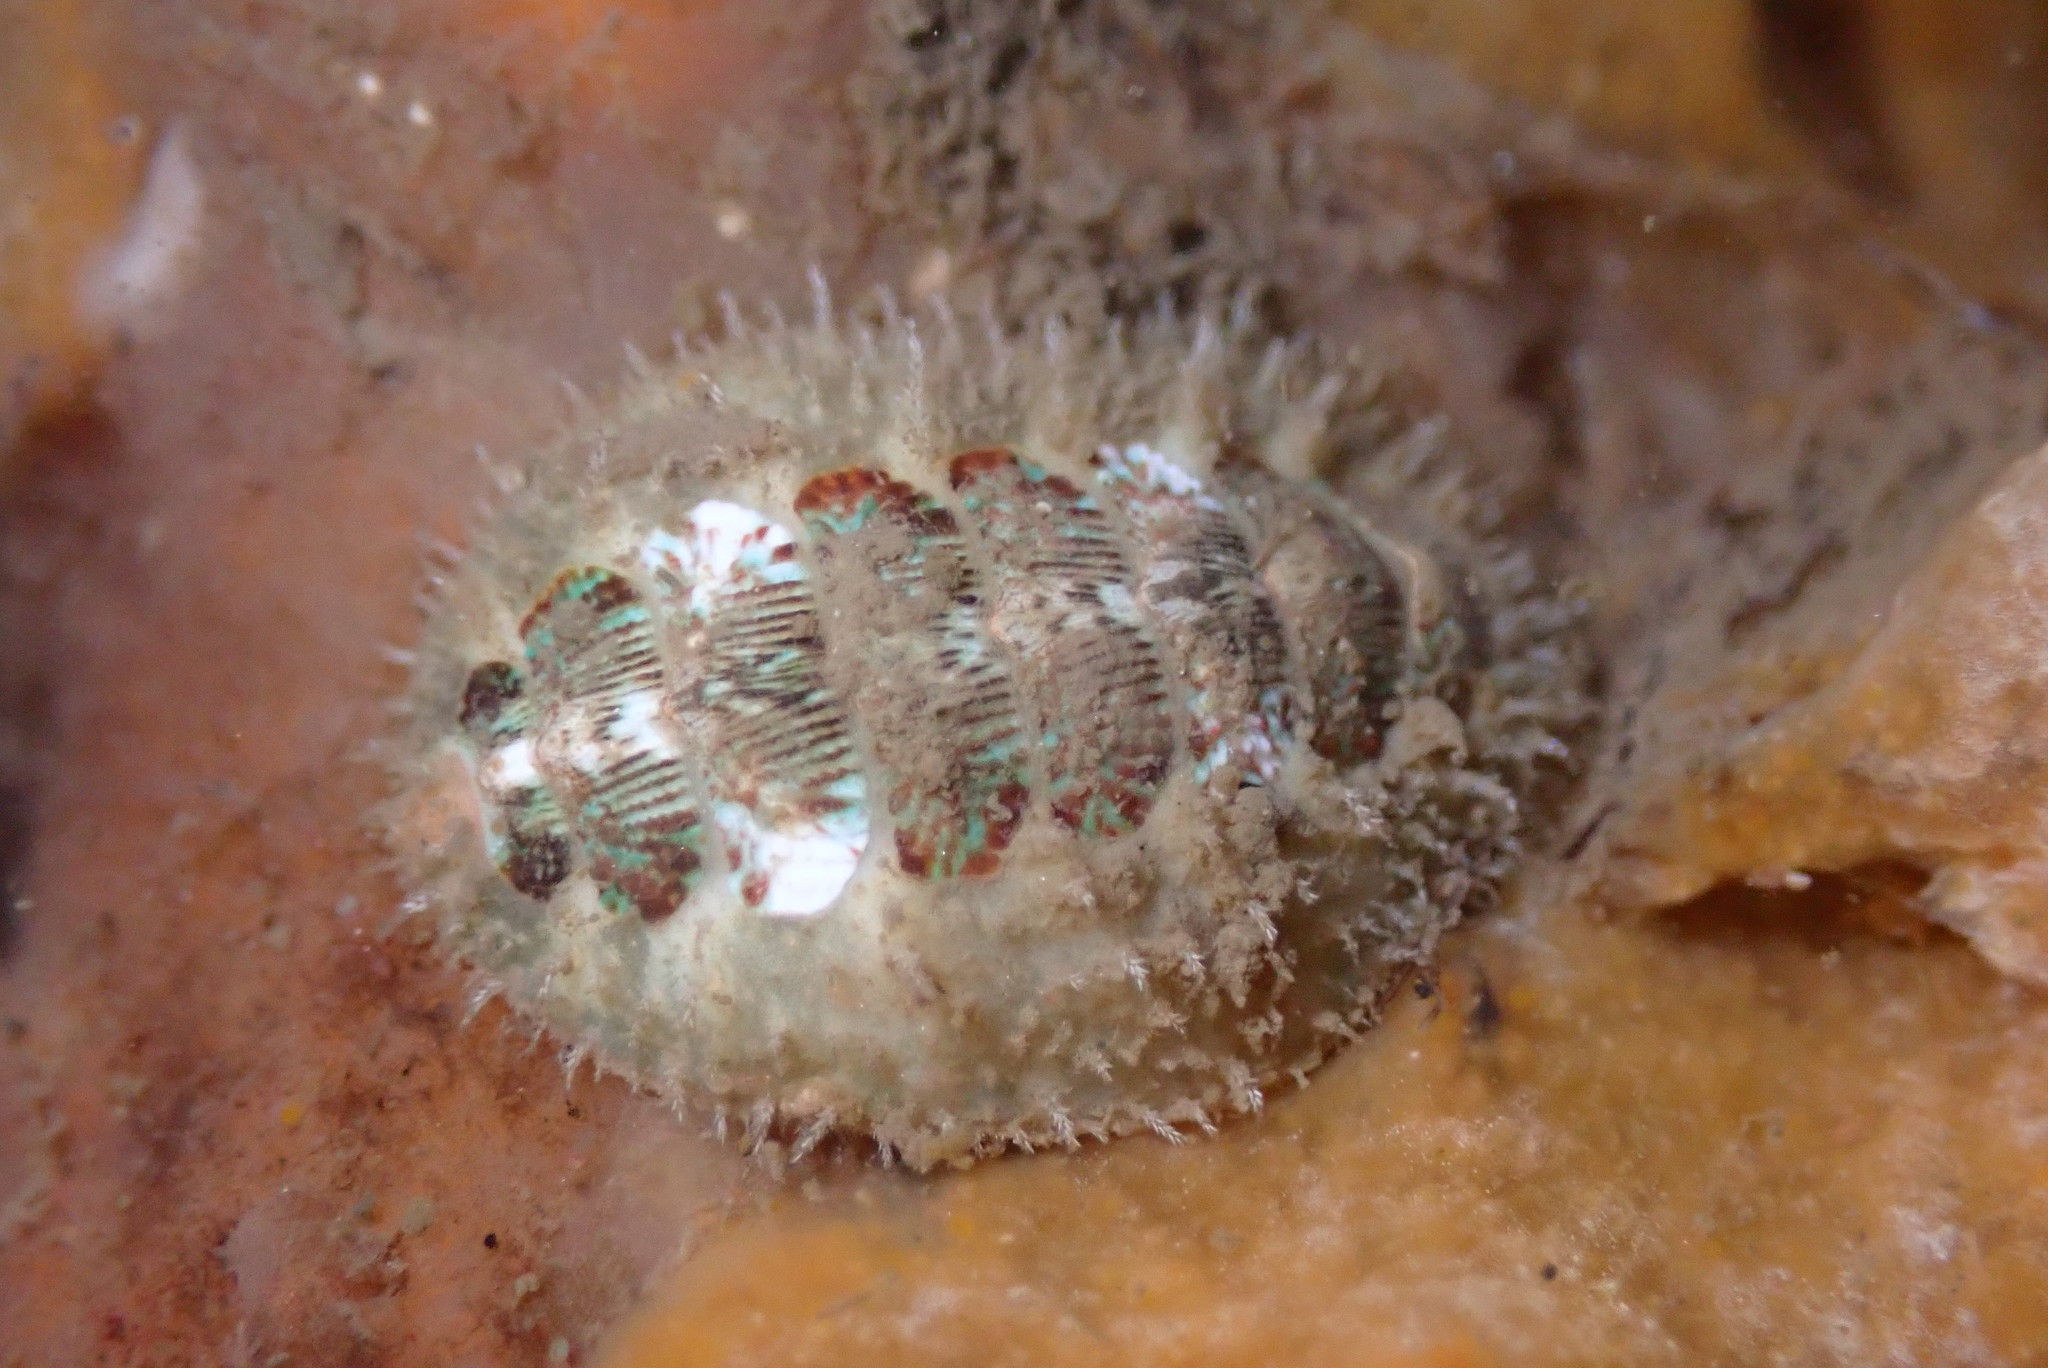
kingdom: Animalia
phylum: Mollusca
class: Polyplacophora
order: Chitonida
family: Mopaliidae
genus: Mopalia
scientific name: Mopalia ciliata
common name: Hairy chiton
